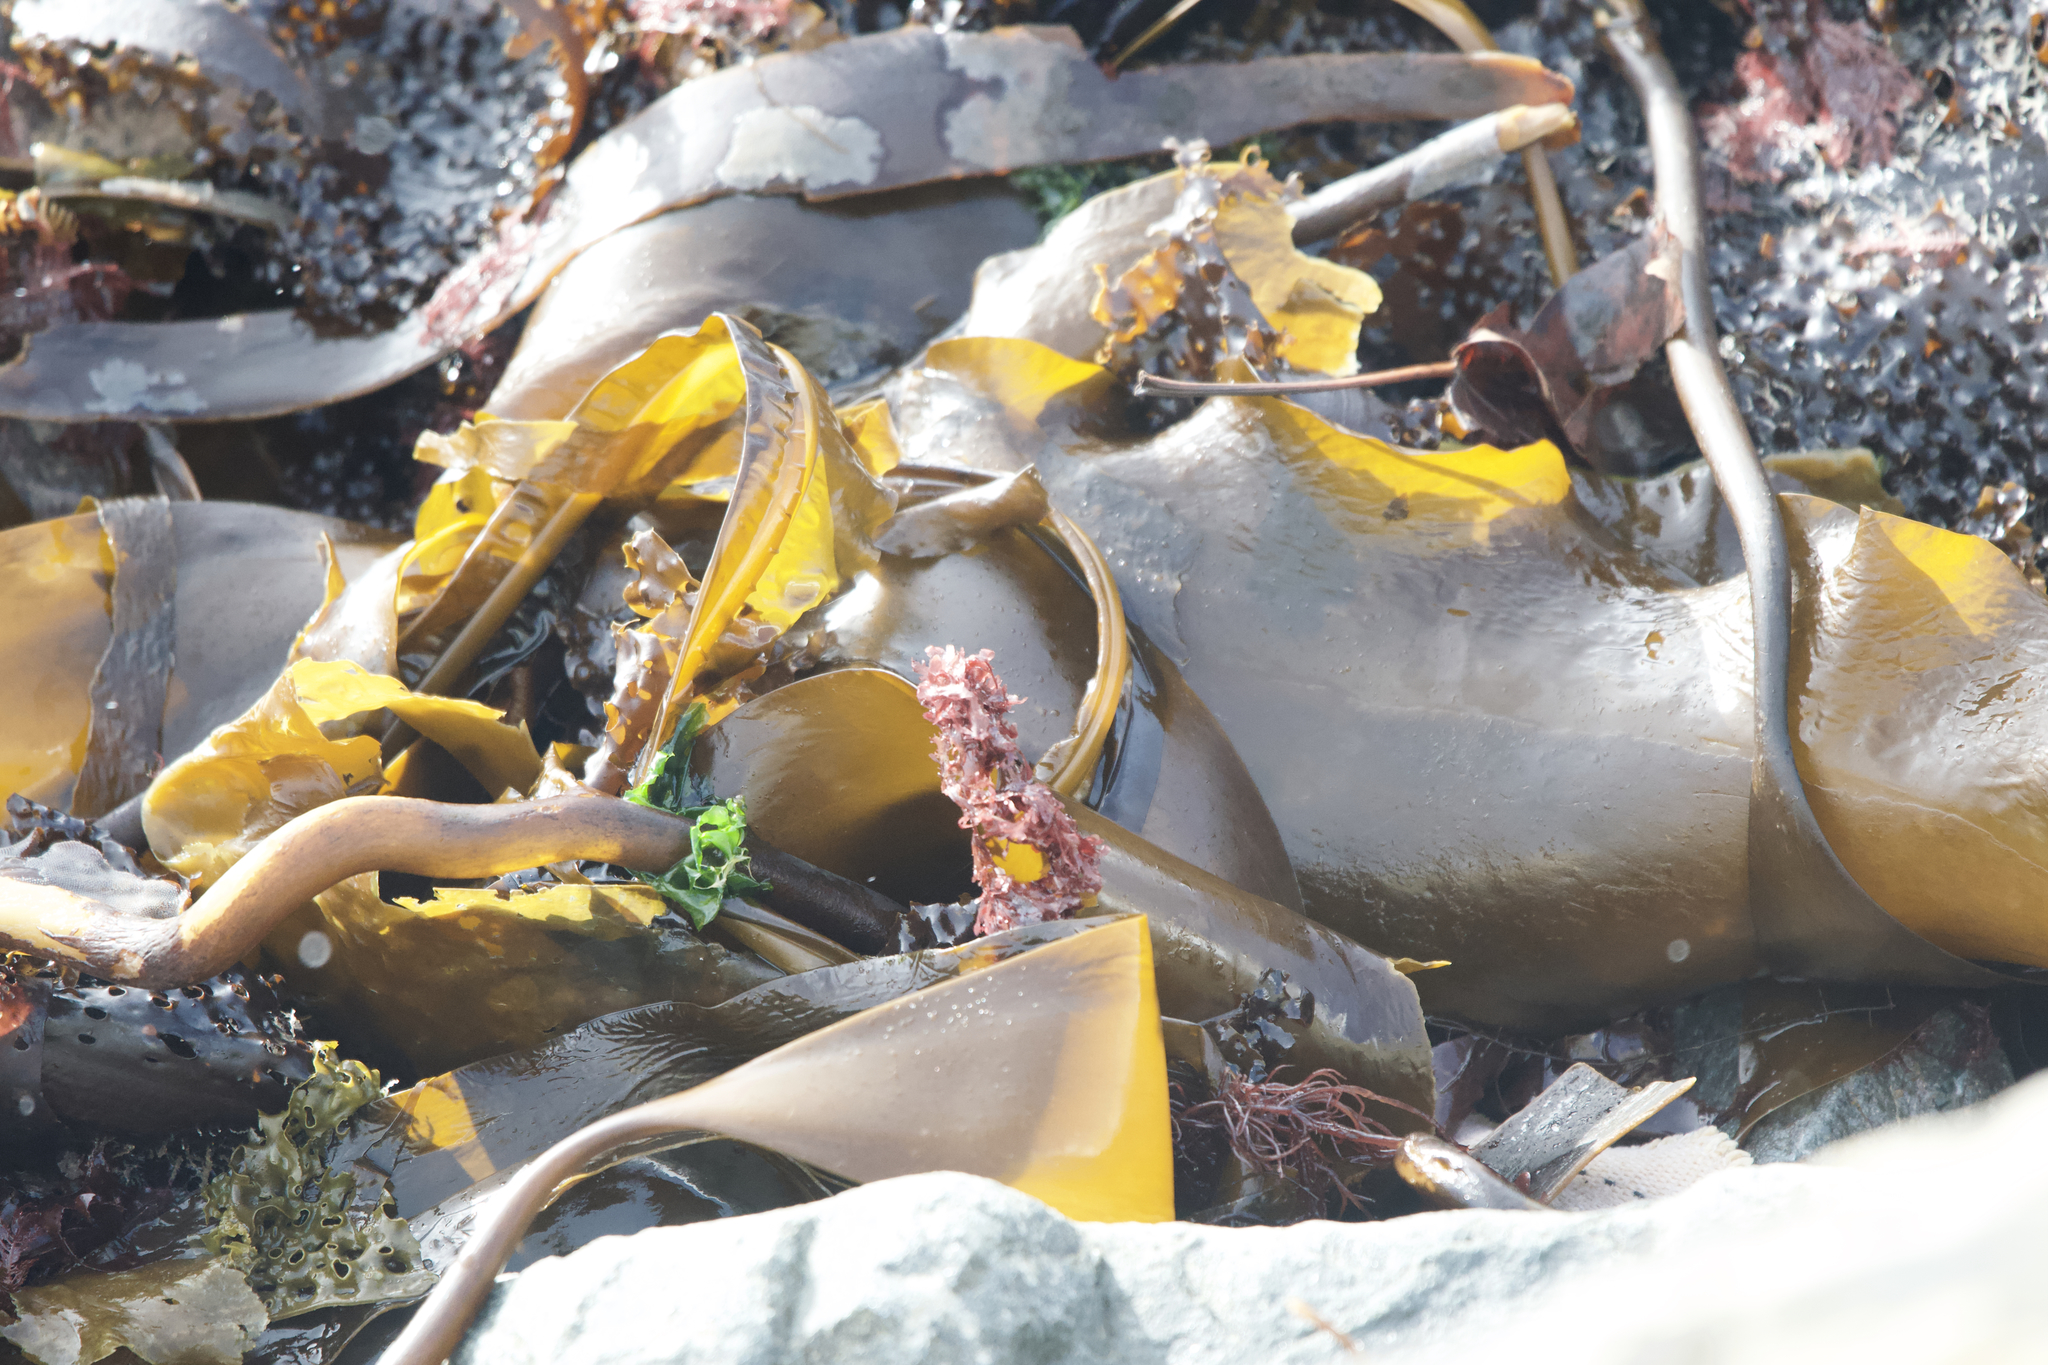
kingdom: Chromista
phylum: Ochrophyta
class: Phaeophyceae
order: Laminariales
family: Laminariaceae
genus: Saccharina
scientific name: Saccharina latissima
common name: Poor man's weather glass
